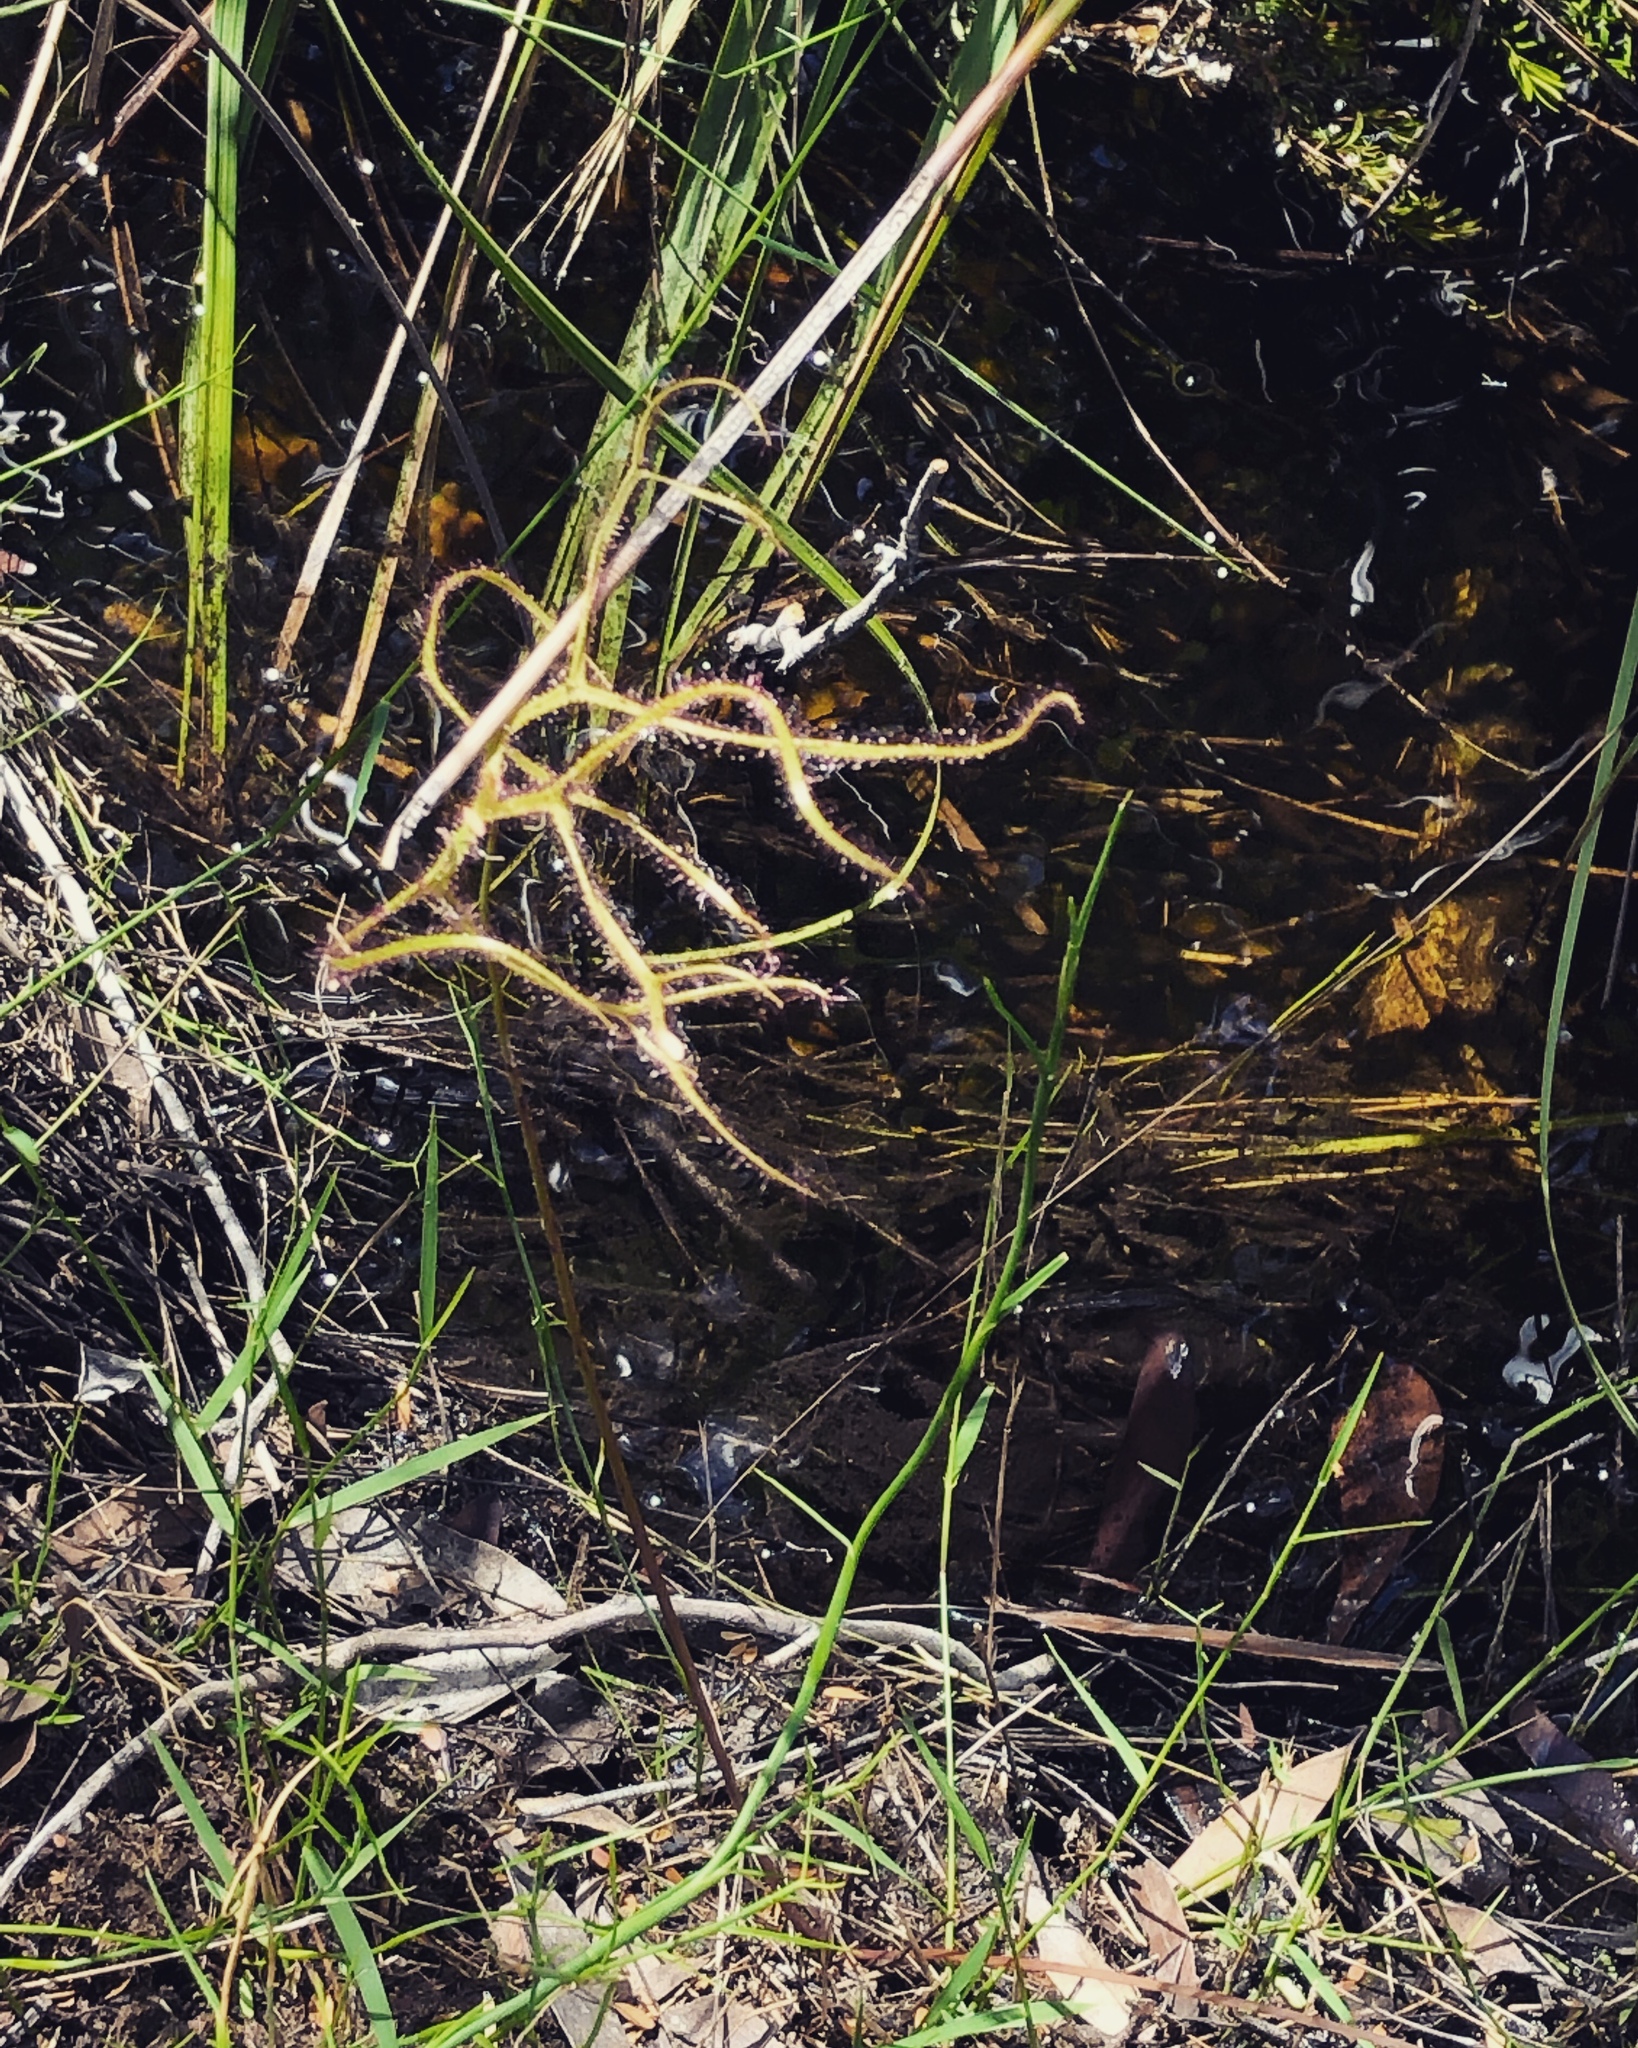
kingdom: Plantae
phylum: Tracheophyta
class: Magnoliopsida
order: Caryophyllales
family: Droseraceae
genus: Drosera
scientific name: Drosera binata
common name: Forked sundew
